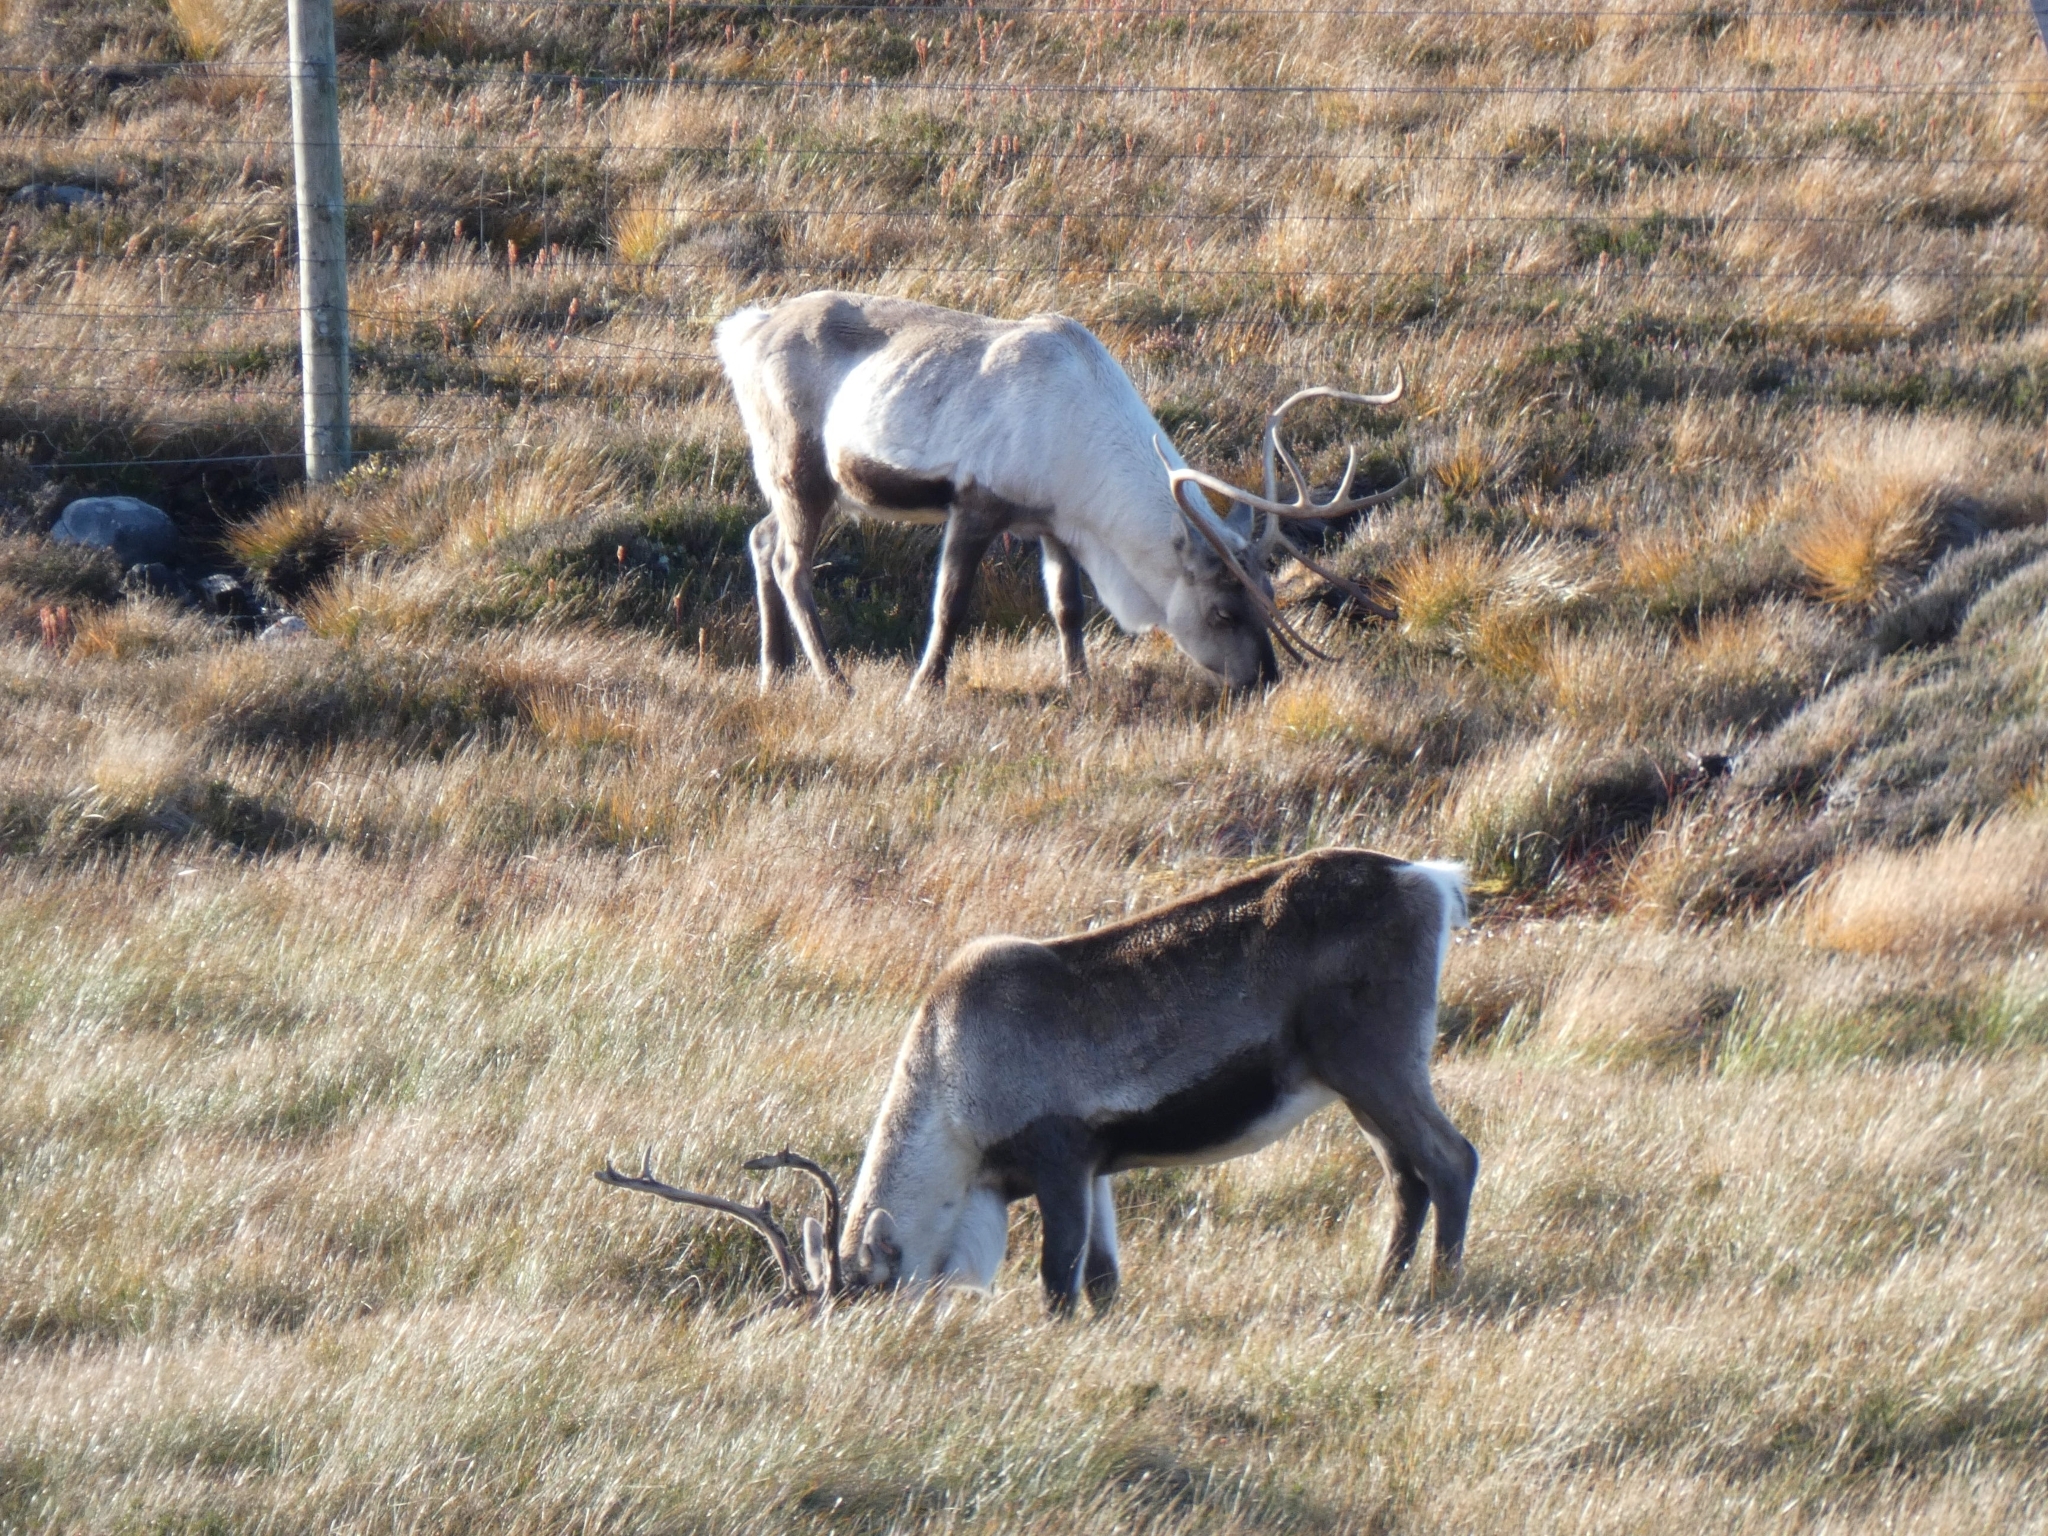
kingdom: Animalia
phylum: Chordata
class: Mammalia
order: Artiodactyla
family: Cervidae
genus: Rangifer
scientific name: Rangifer tarandus
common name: Reindeer
